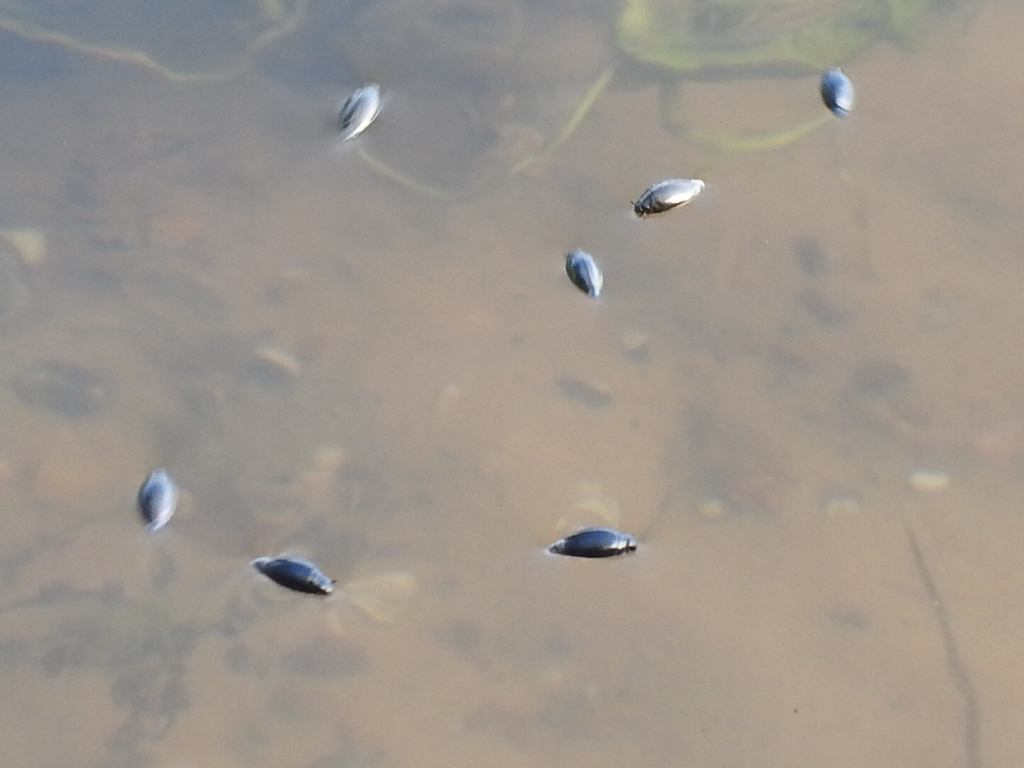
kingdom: Animalia
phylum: Arthropoda
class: Insecta
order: Coleoptera
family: Gyrinidae
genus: Gyrinus
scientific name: Gyrinus
